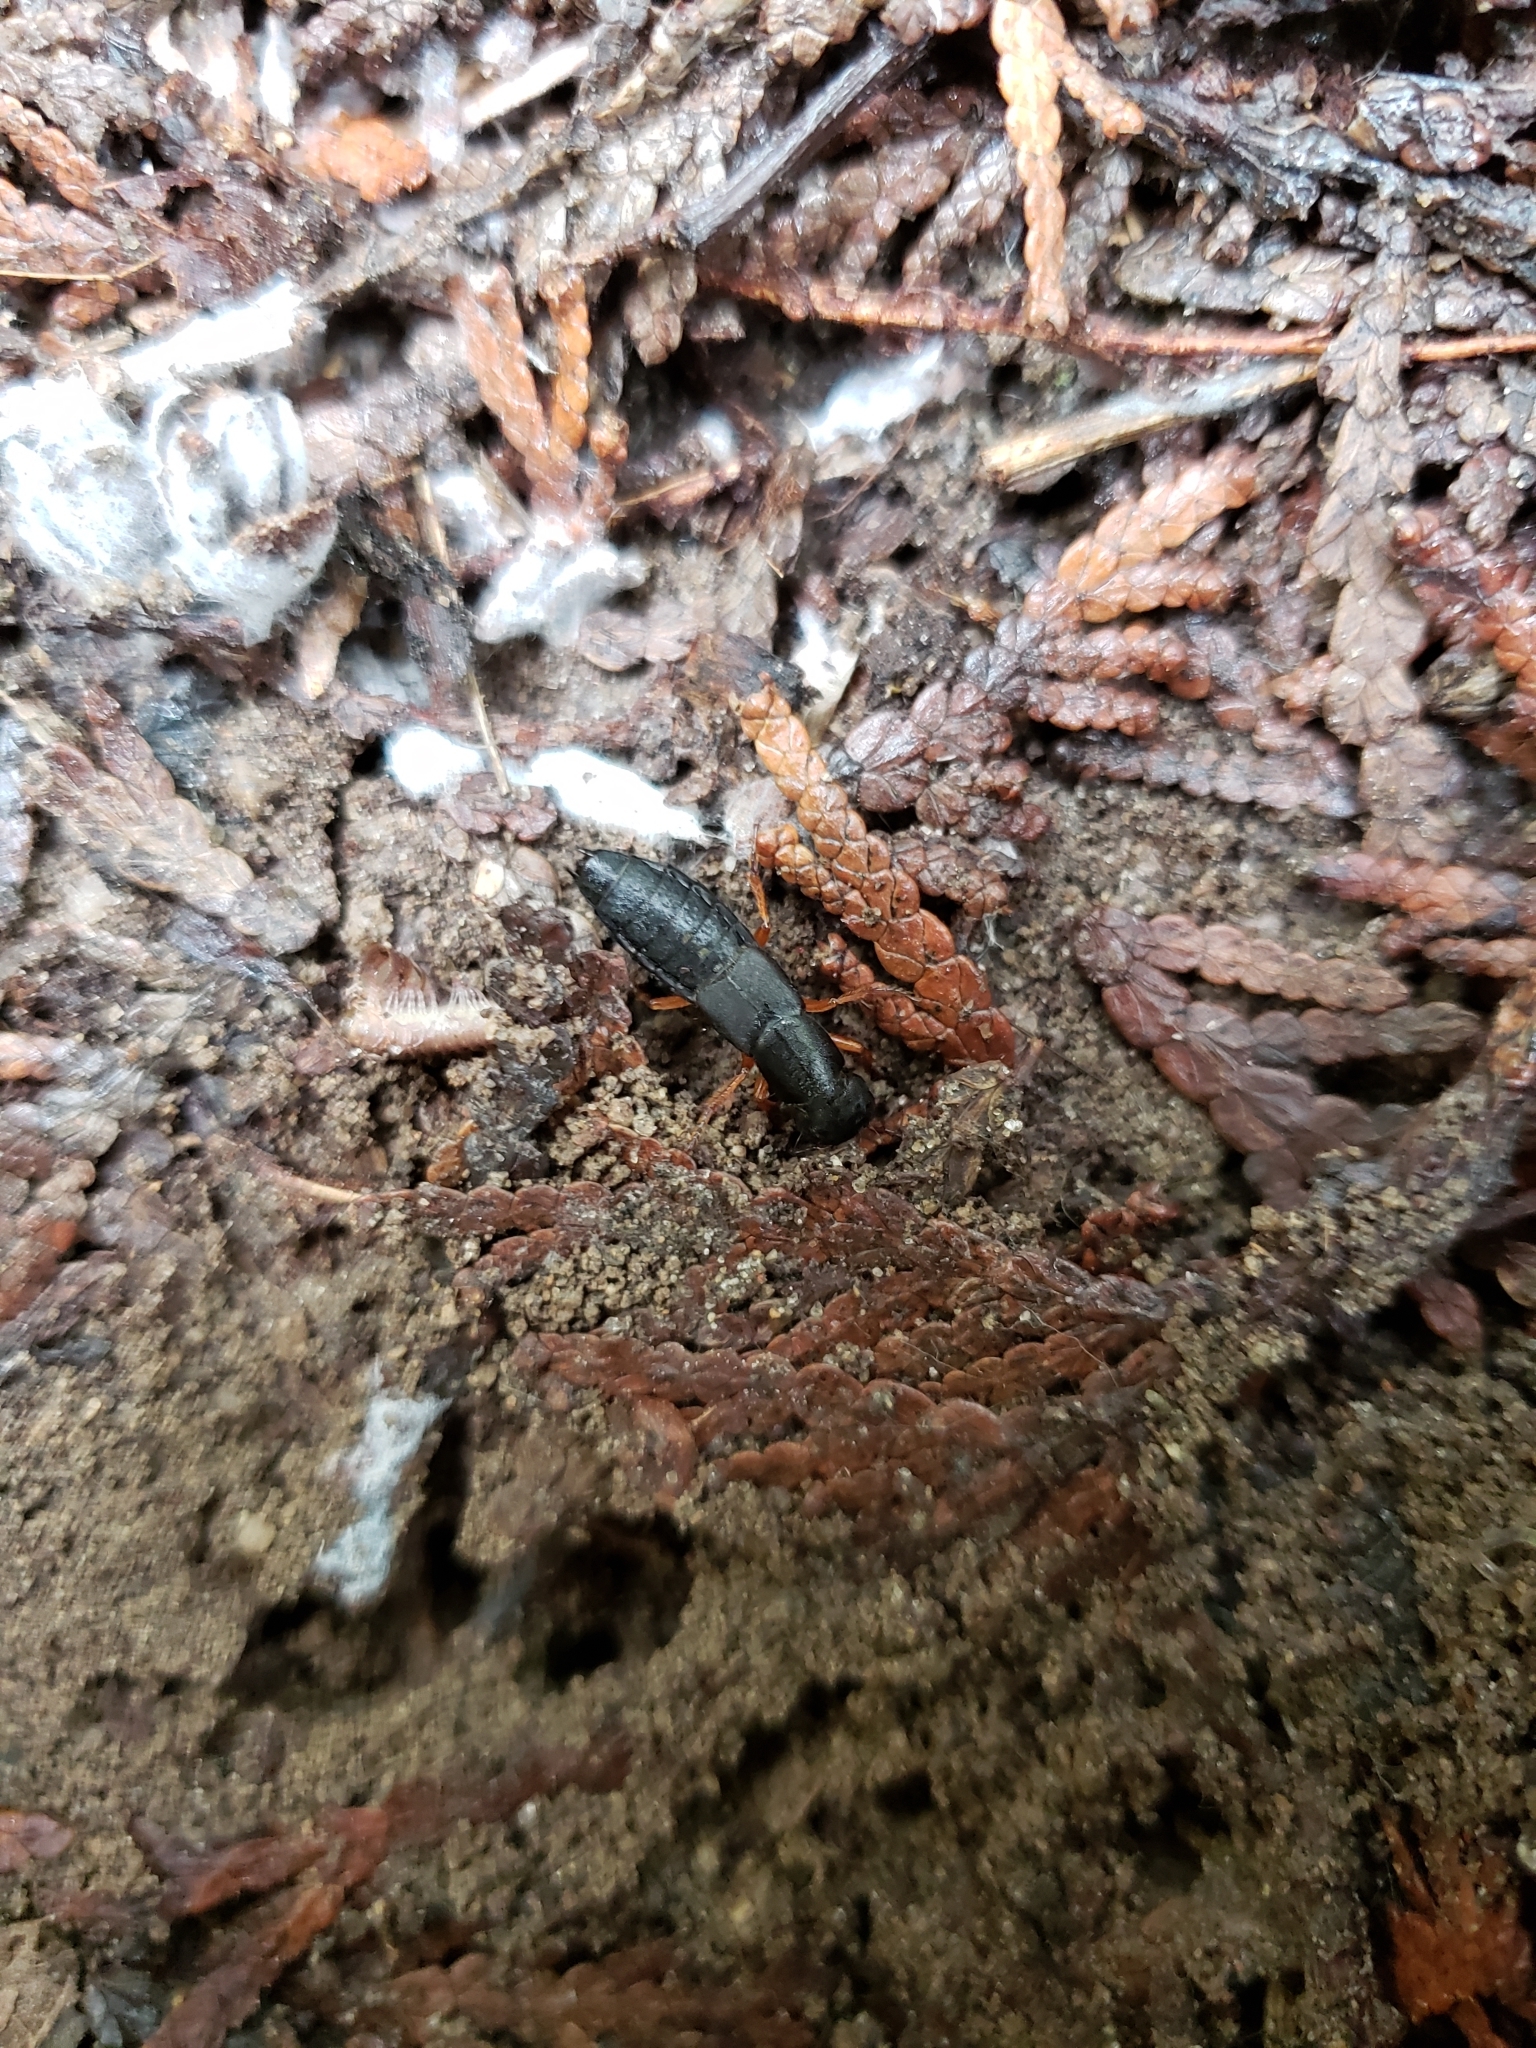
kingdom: Animalia
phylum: Arthropoda
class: Insecta
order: Coleoptera
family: Staphylinidae
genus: Dinothenarus
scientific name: Dinothenarus badipes
